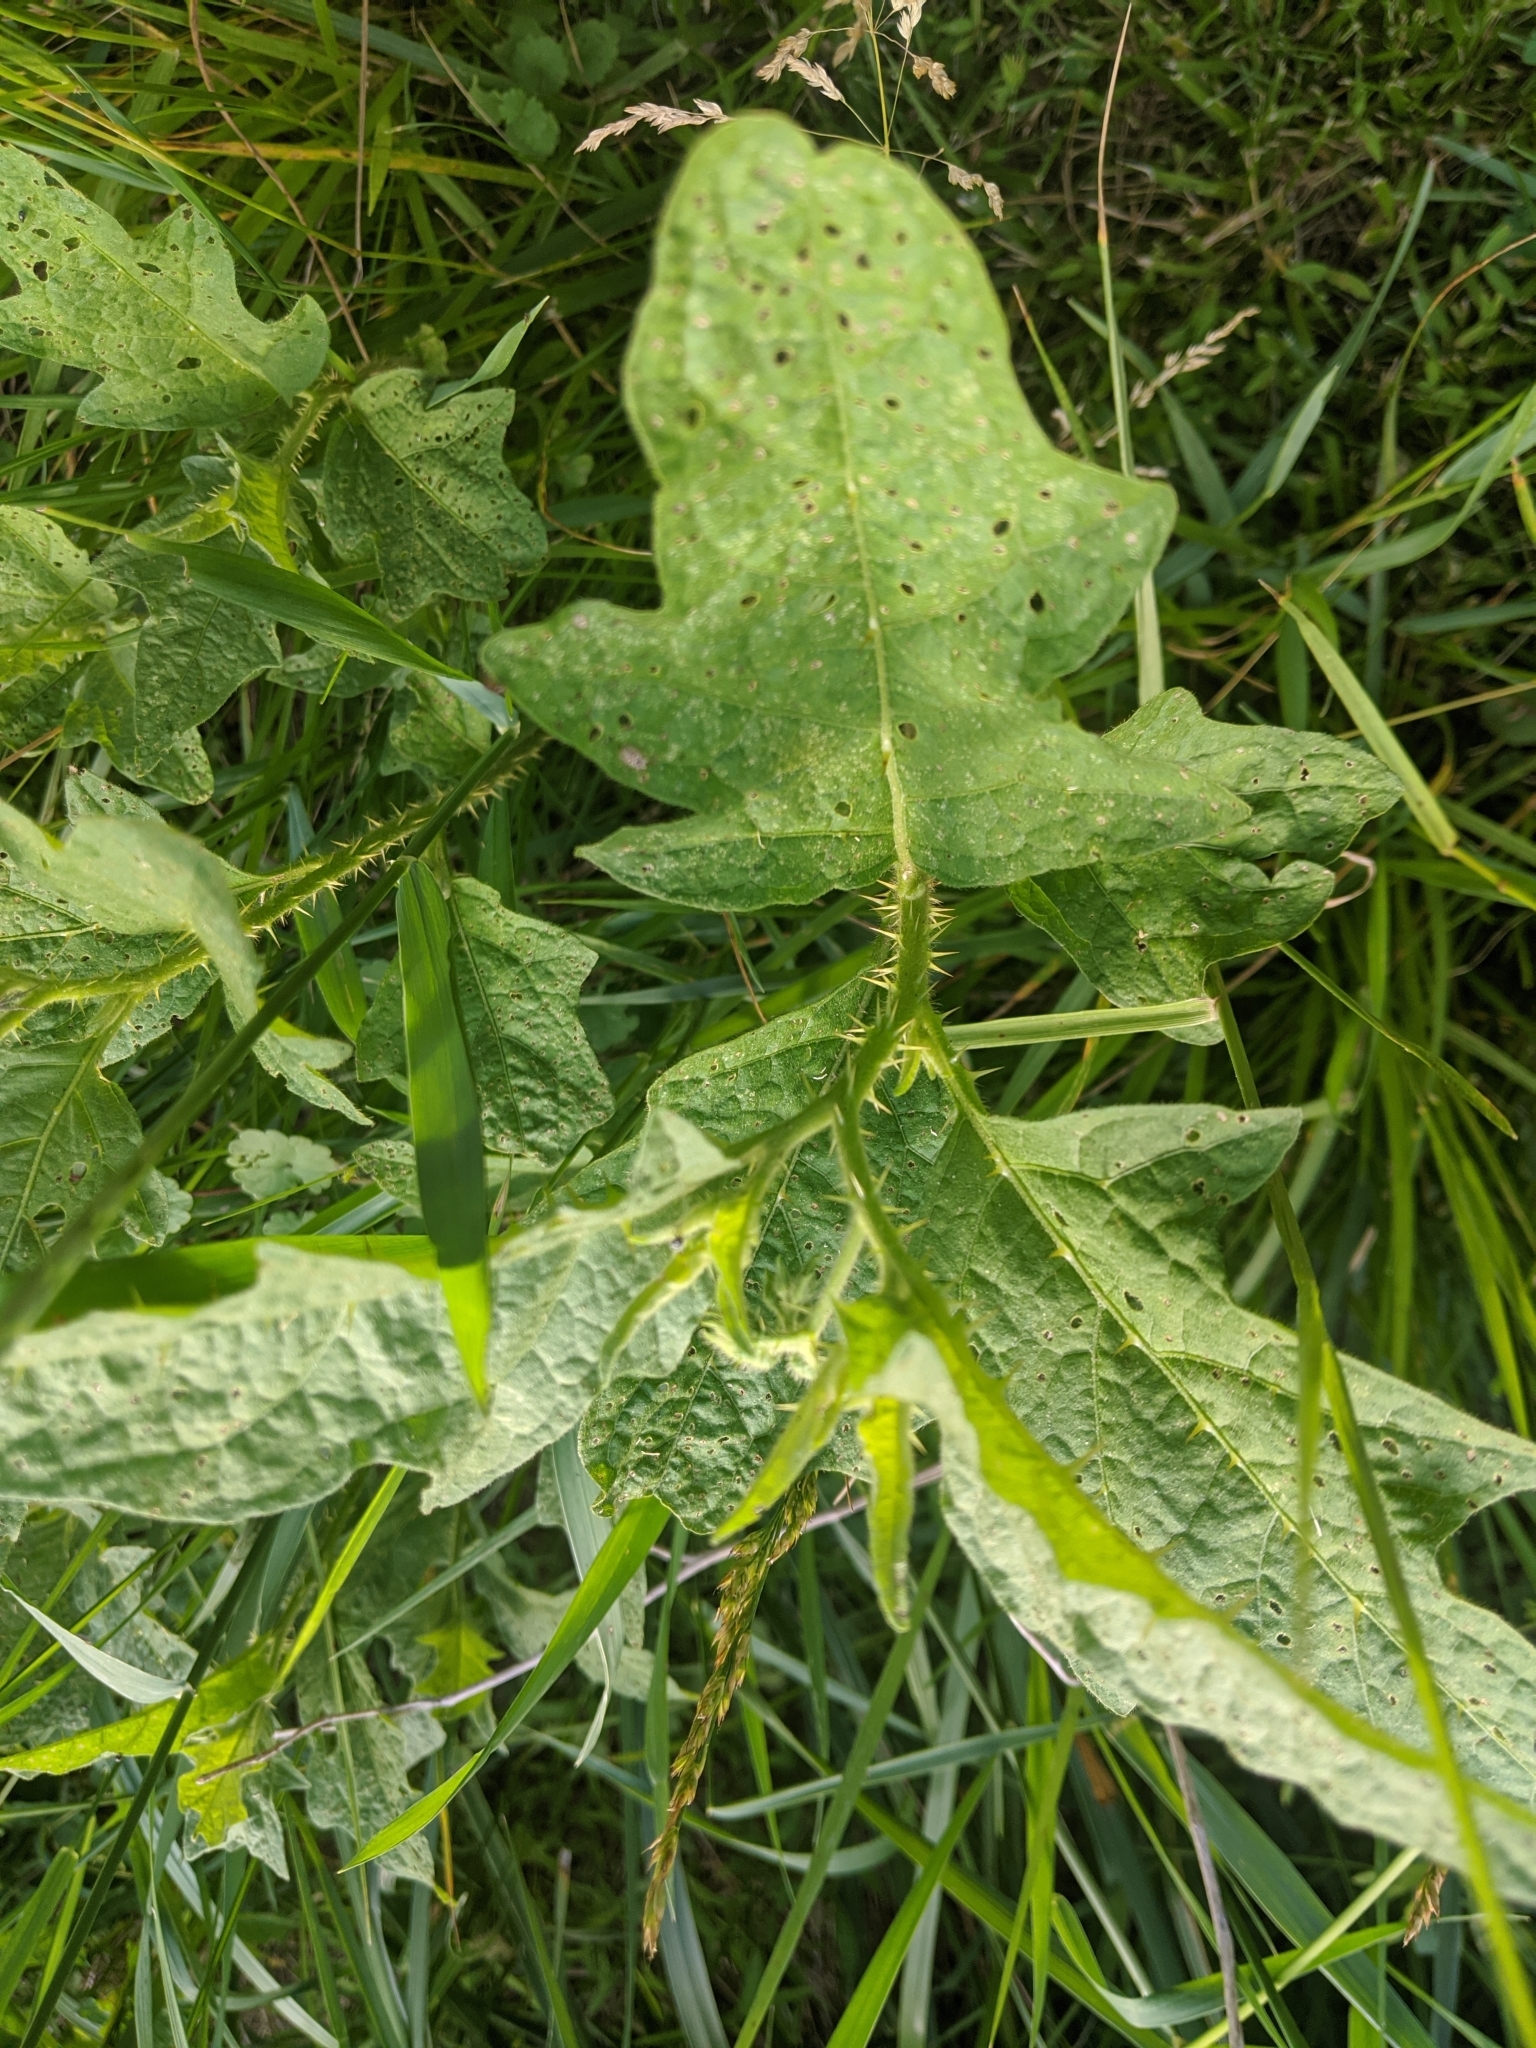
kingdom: Plantae
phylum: Tracheophyta
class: Magnoliopsida
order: Solanales
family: Solanaceae
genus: Solanum
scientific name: Solanum carolinense
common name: Horse-nettle
